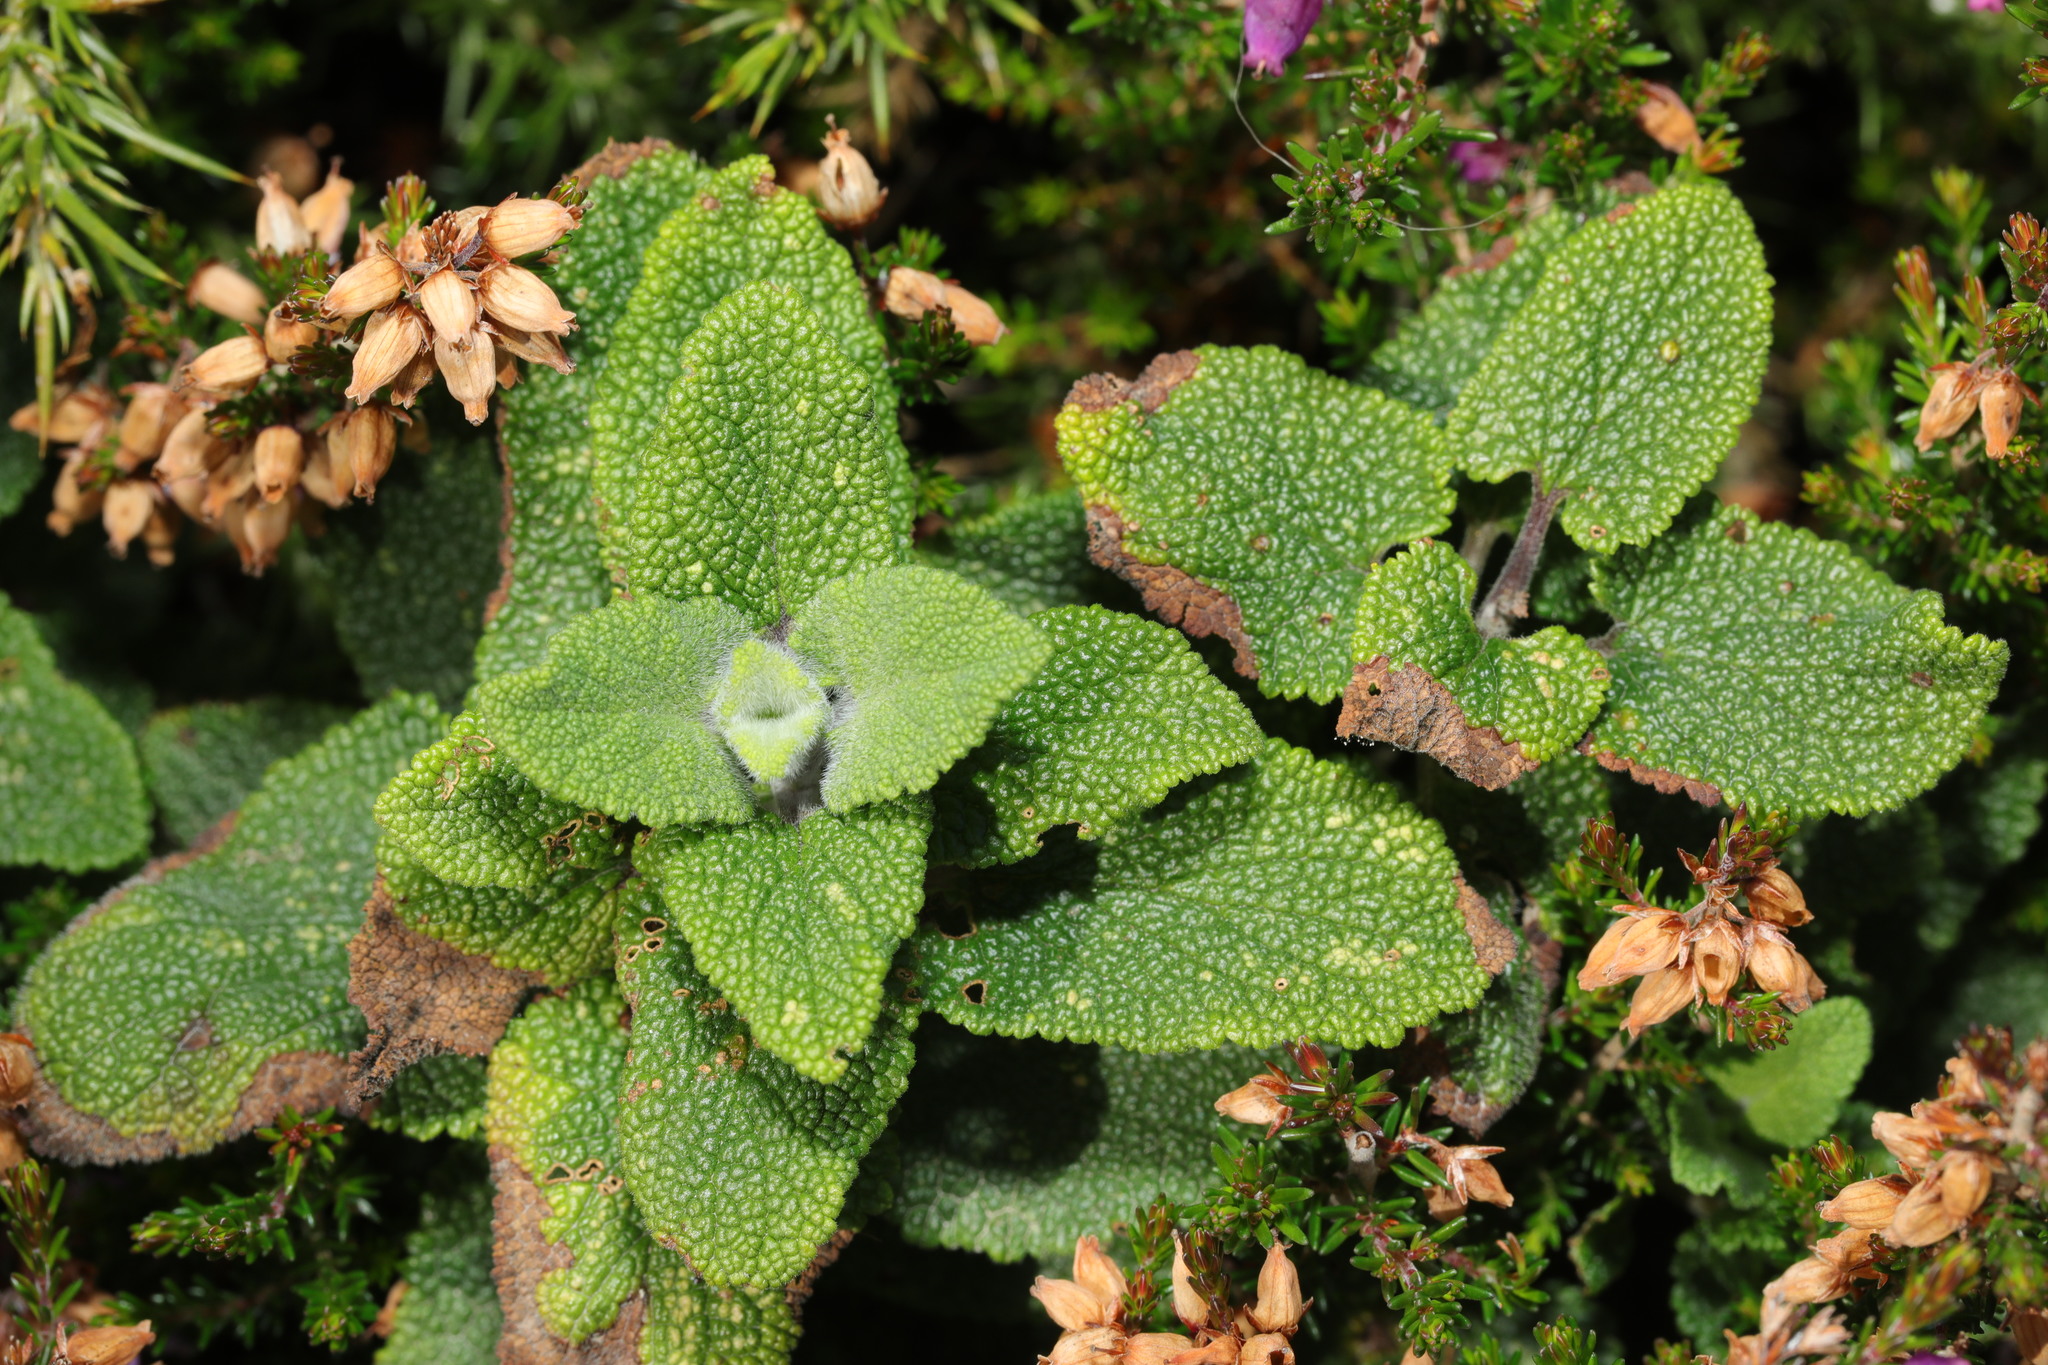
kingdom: Plantae
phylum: Tracheophyta
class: Magnoliopsida
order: Lamiales
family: Lamiaceae
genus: Teucrium
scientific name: Teucrium scorodonia
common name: Woodland germander
